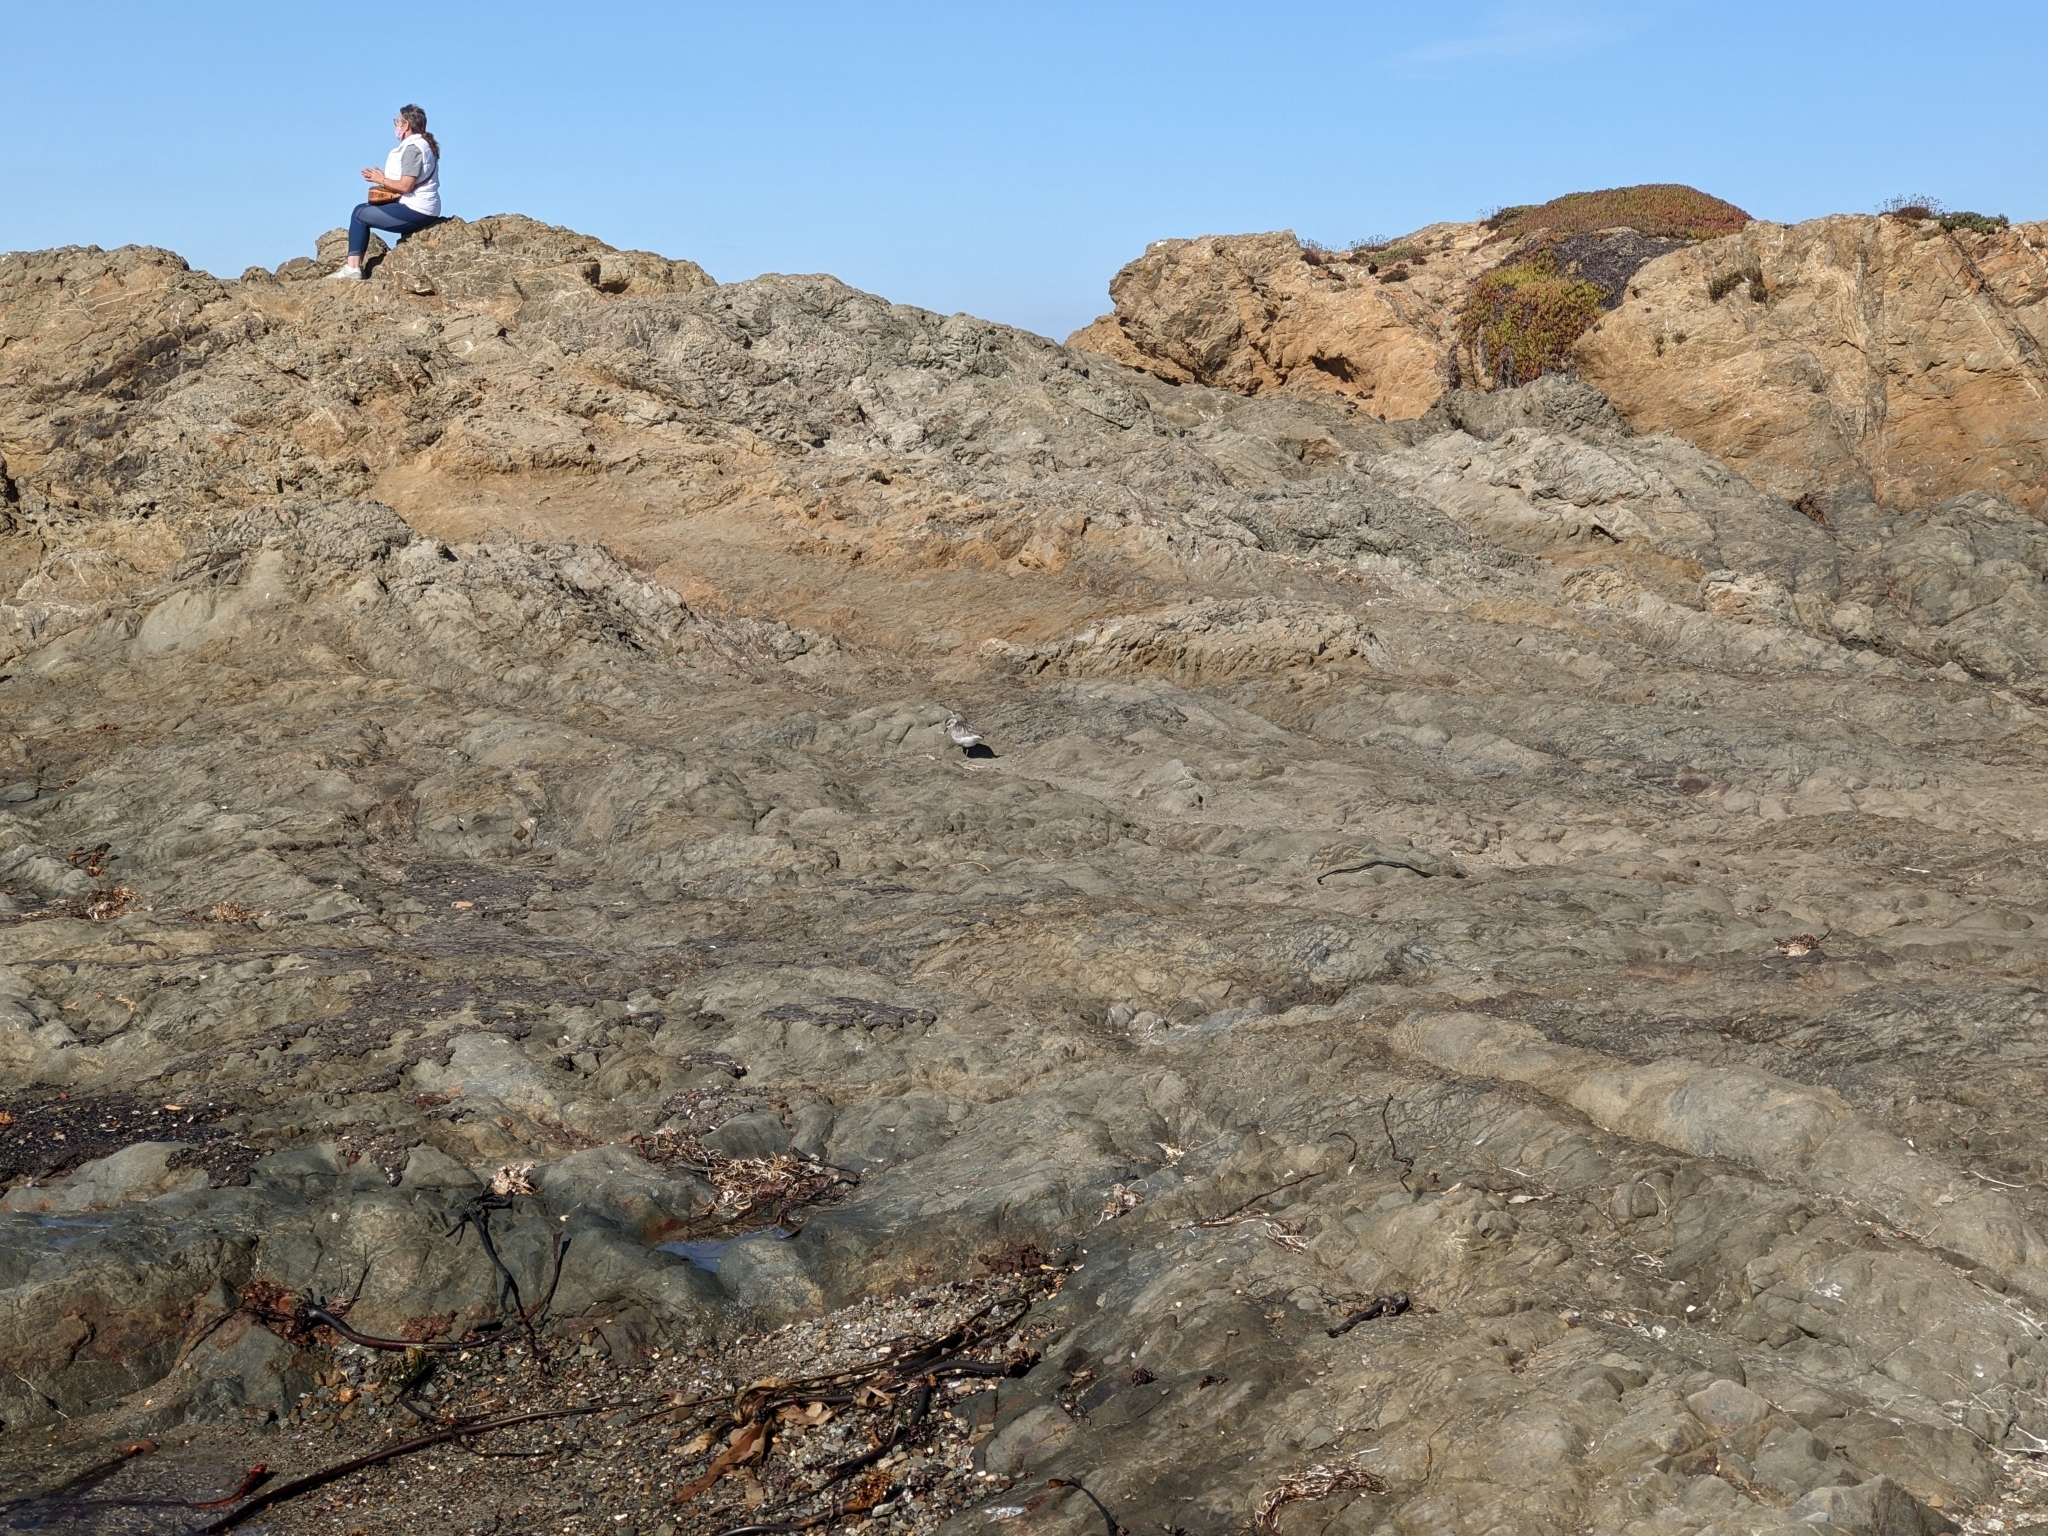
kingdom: Animalia
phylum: Chordata
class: Aves
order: Charadriiformes
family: Charadriidae
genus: Pluvialis
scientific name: Pluvialis squatarola
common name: Grey plover
